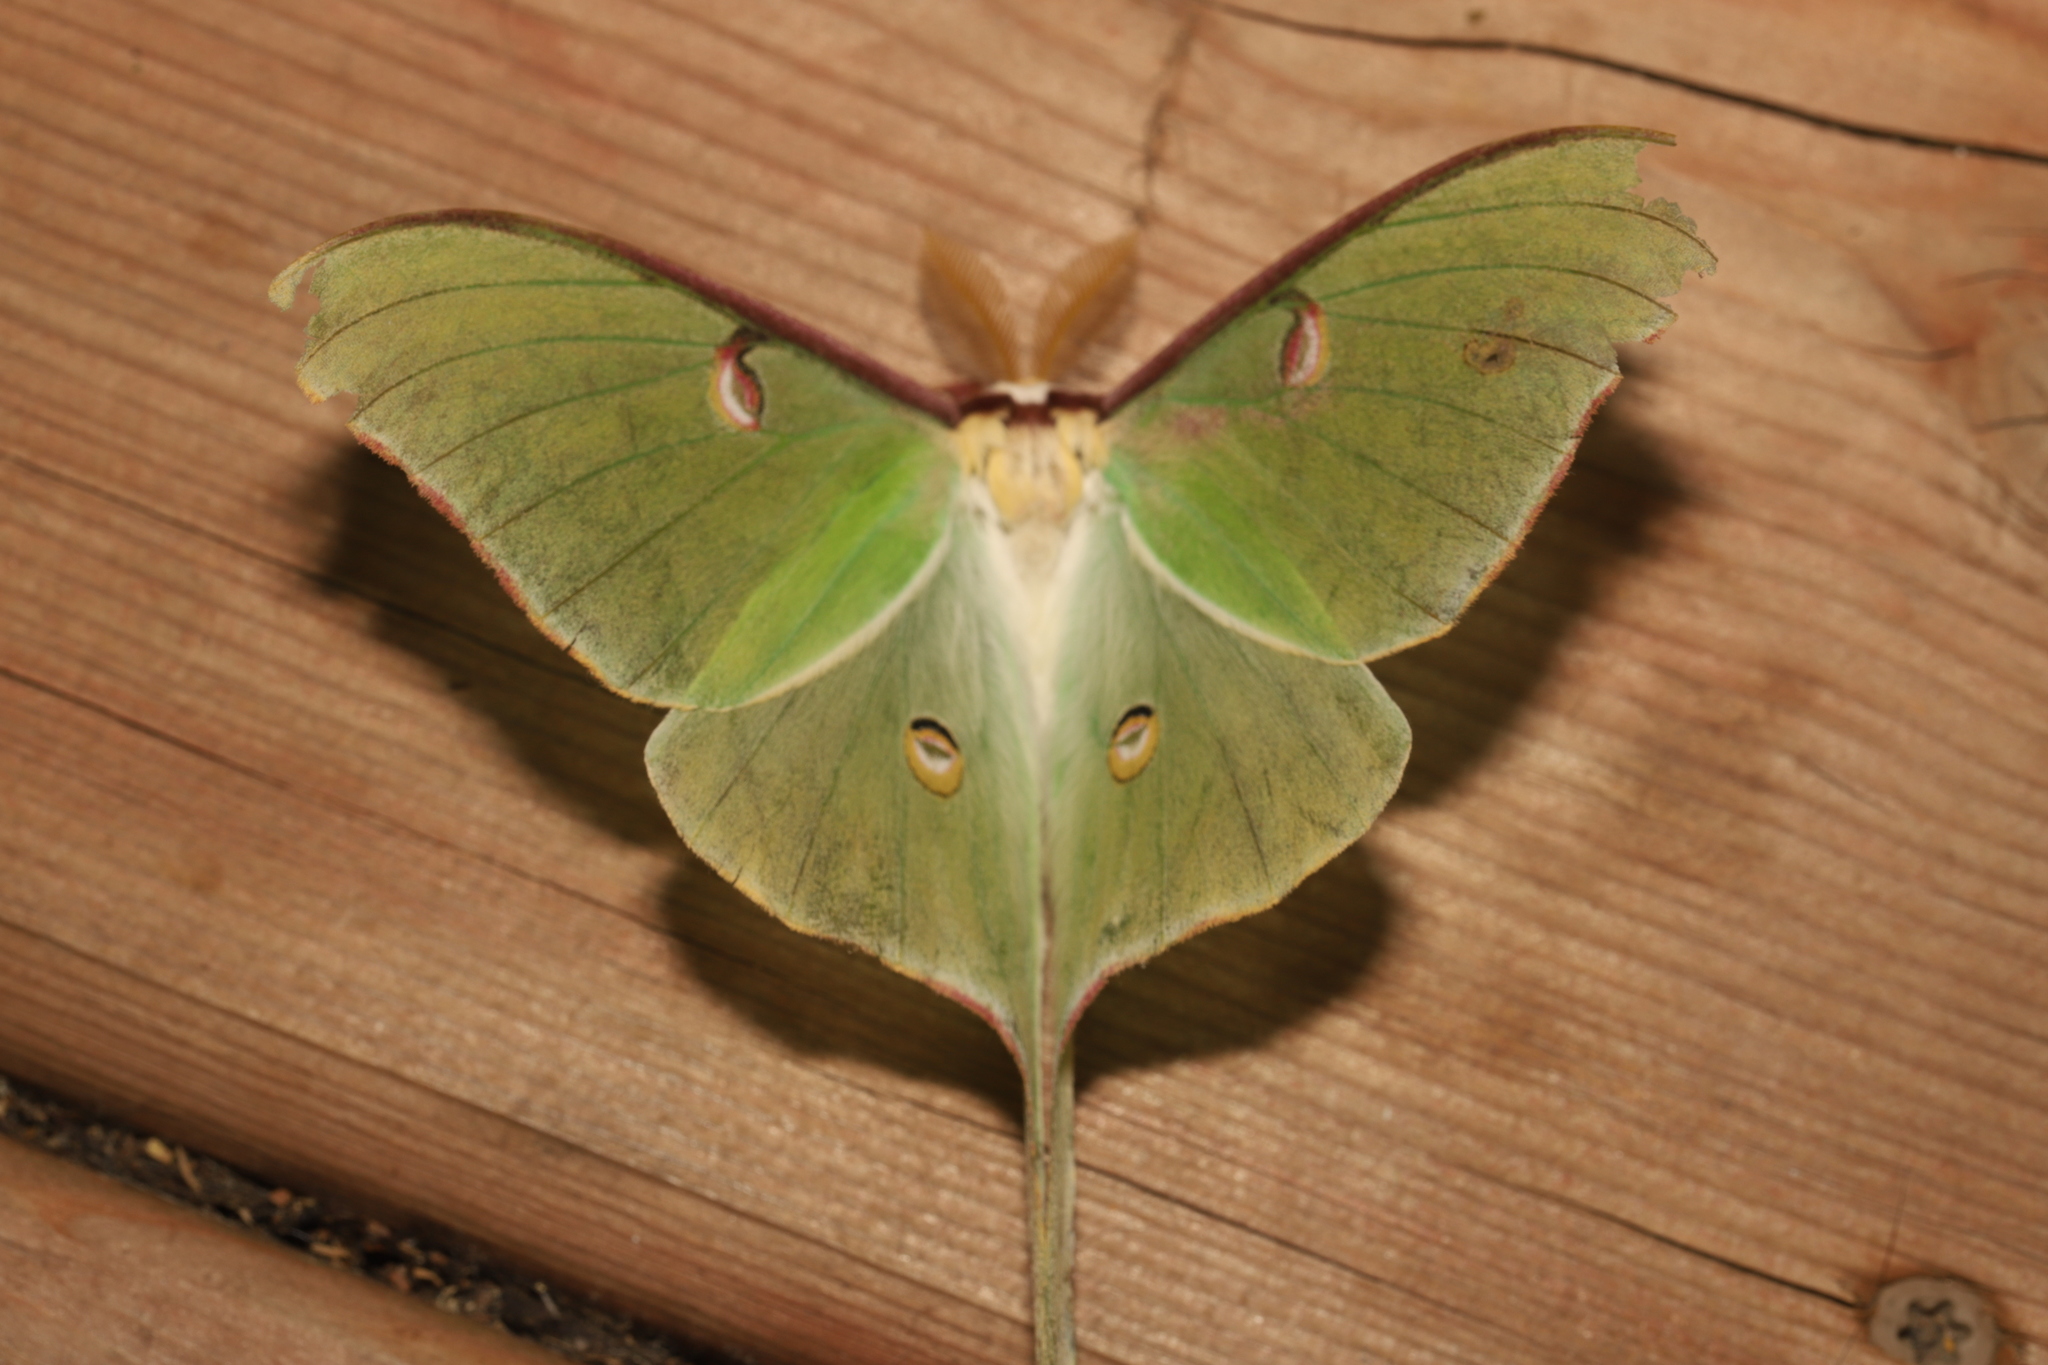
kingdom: Animalia
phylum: Arthropoda
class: Insecta
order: Lepidoptera
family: Saturniidae
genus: Actias
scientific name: Actias luna
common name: Luna moth
